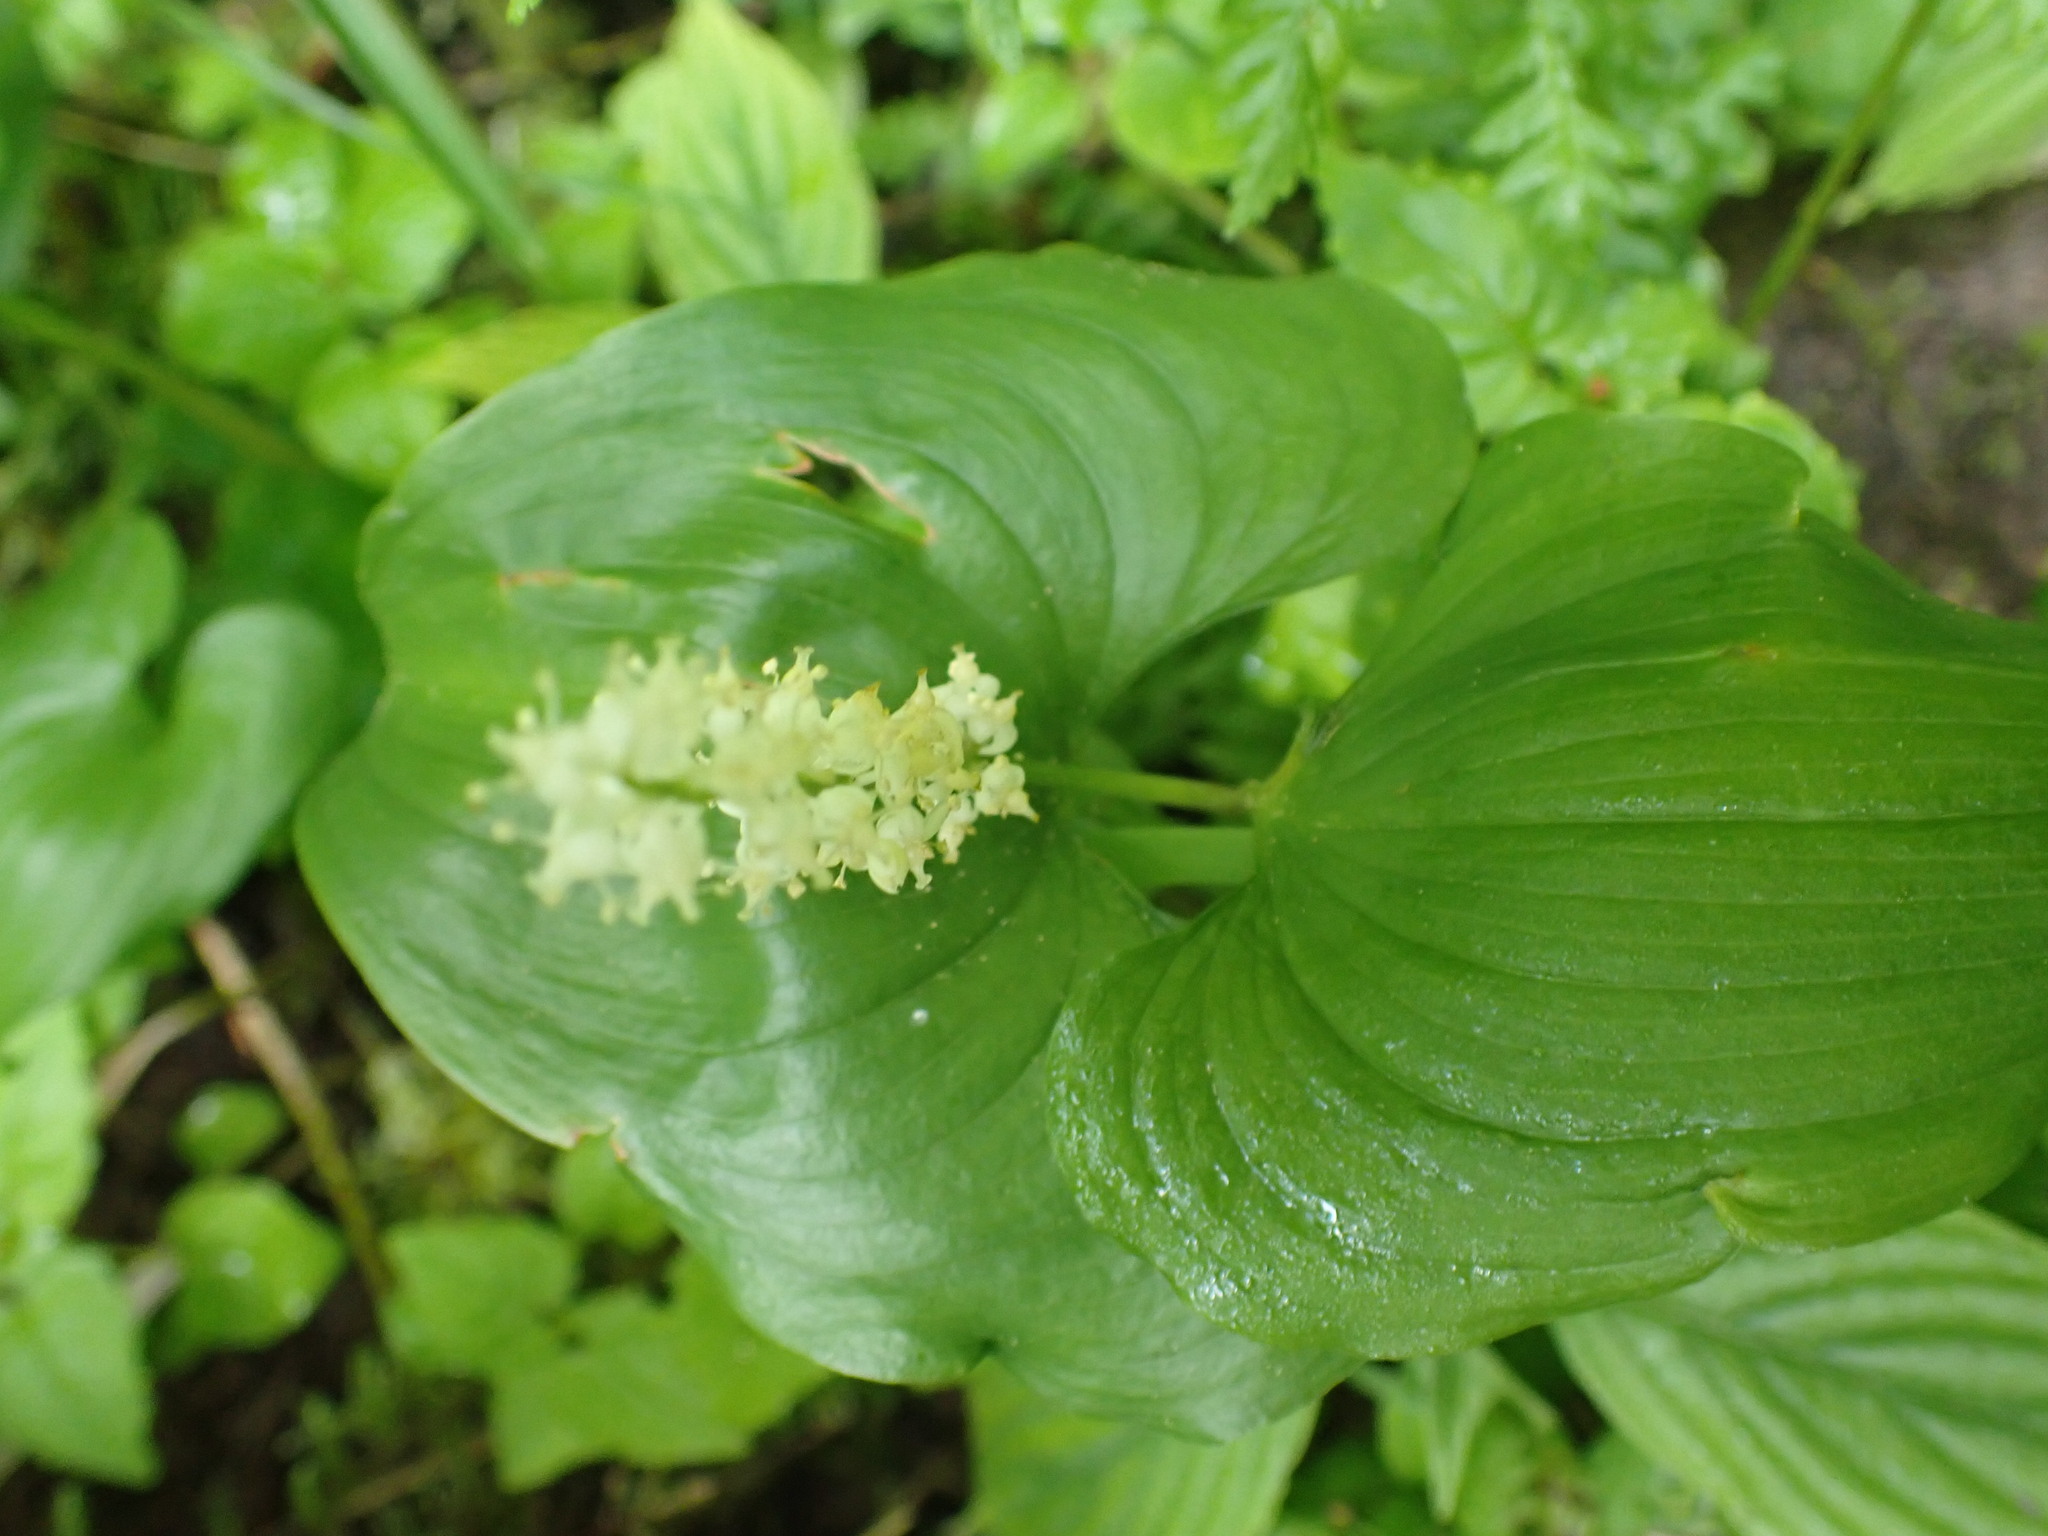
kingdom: Plantae
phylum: Tracheophyta
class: Liliopsida
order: Asparagales
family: Asparagaceae
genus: Maianthemum
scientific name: Maianthemum dilatatum
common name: False lily-of-the-valley
